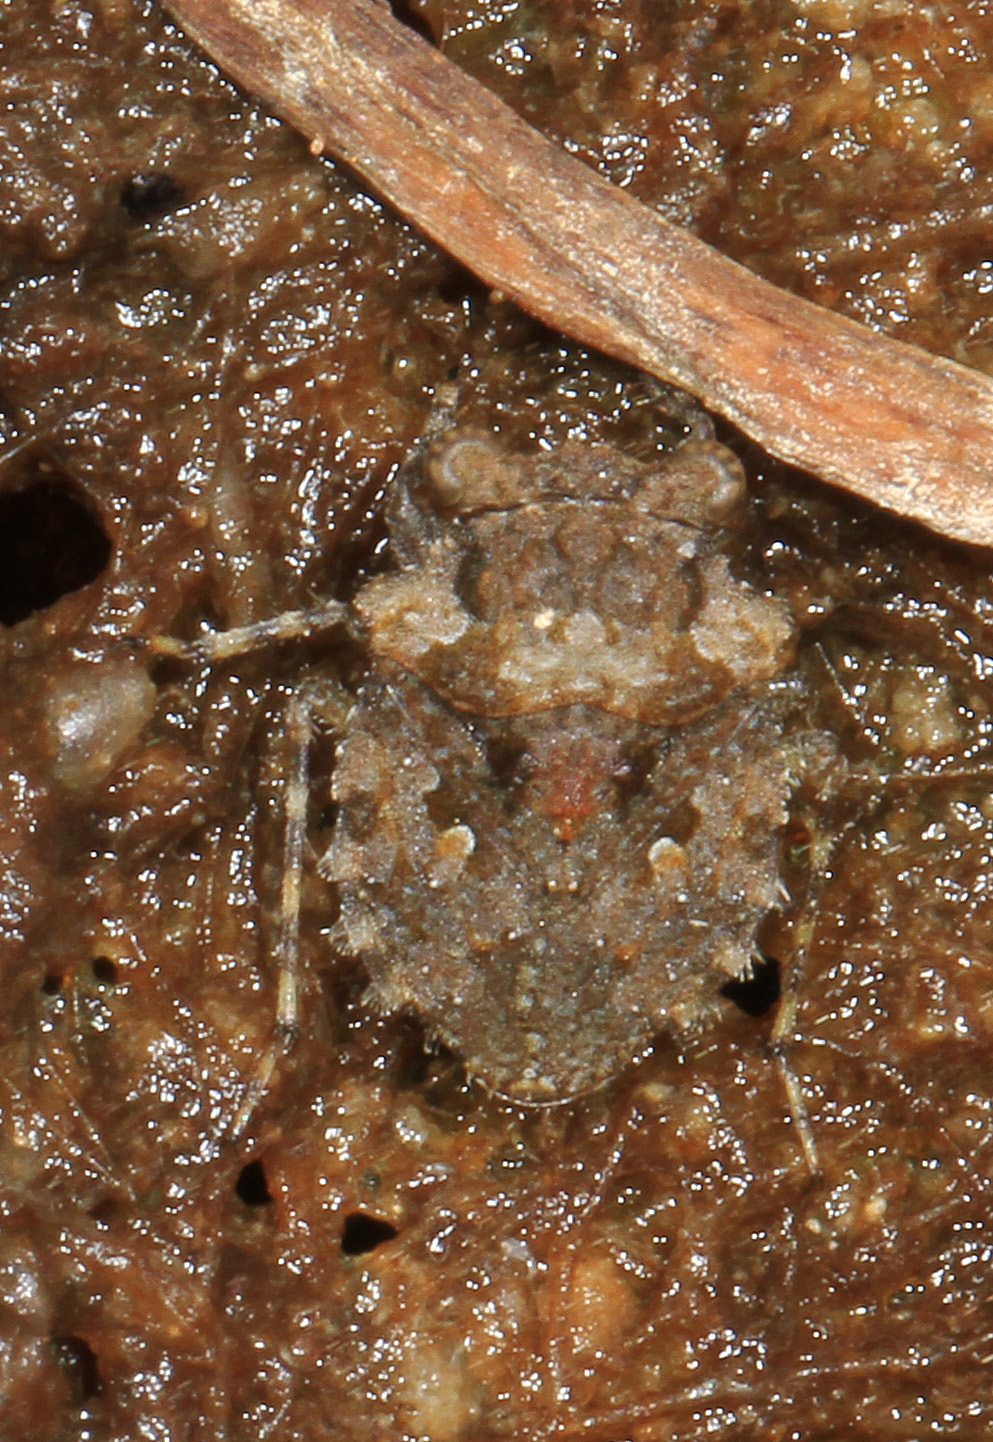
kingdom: Animalia
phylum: Arthropoda
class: Insecta
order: Hemiptera
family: Gelastocoridae
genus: Gelastocoris
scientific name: Gelastocoris oculatus
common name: Toad bug
